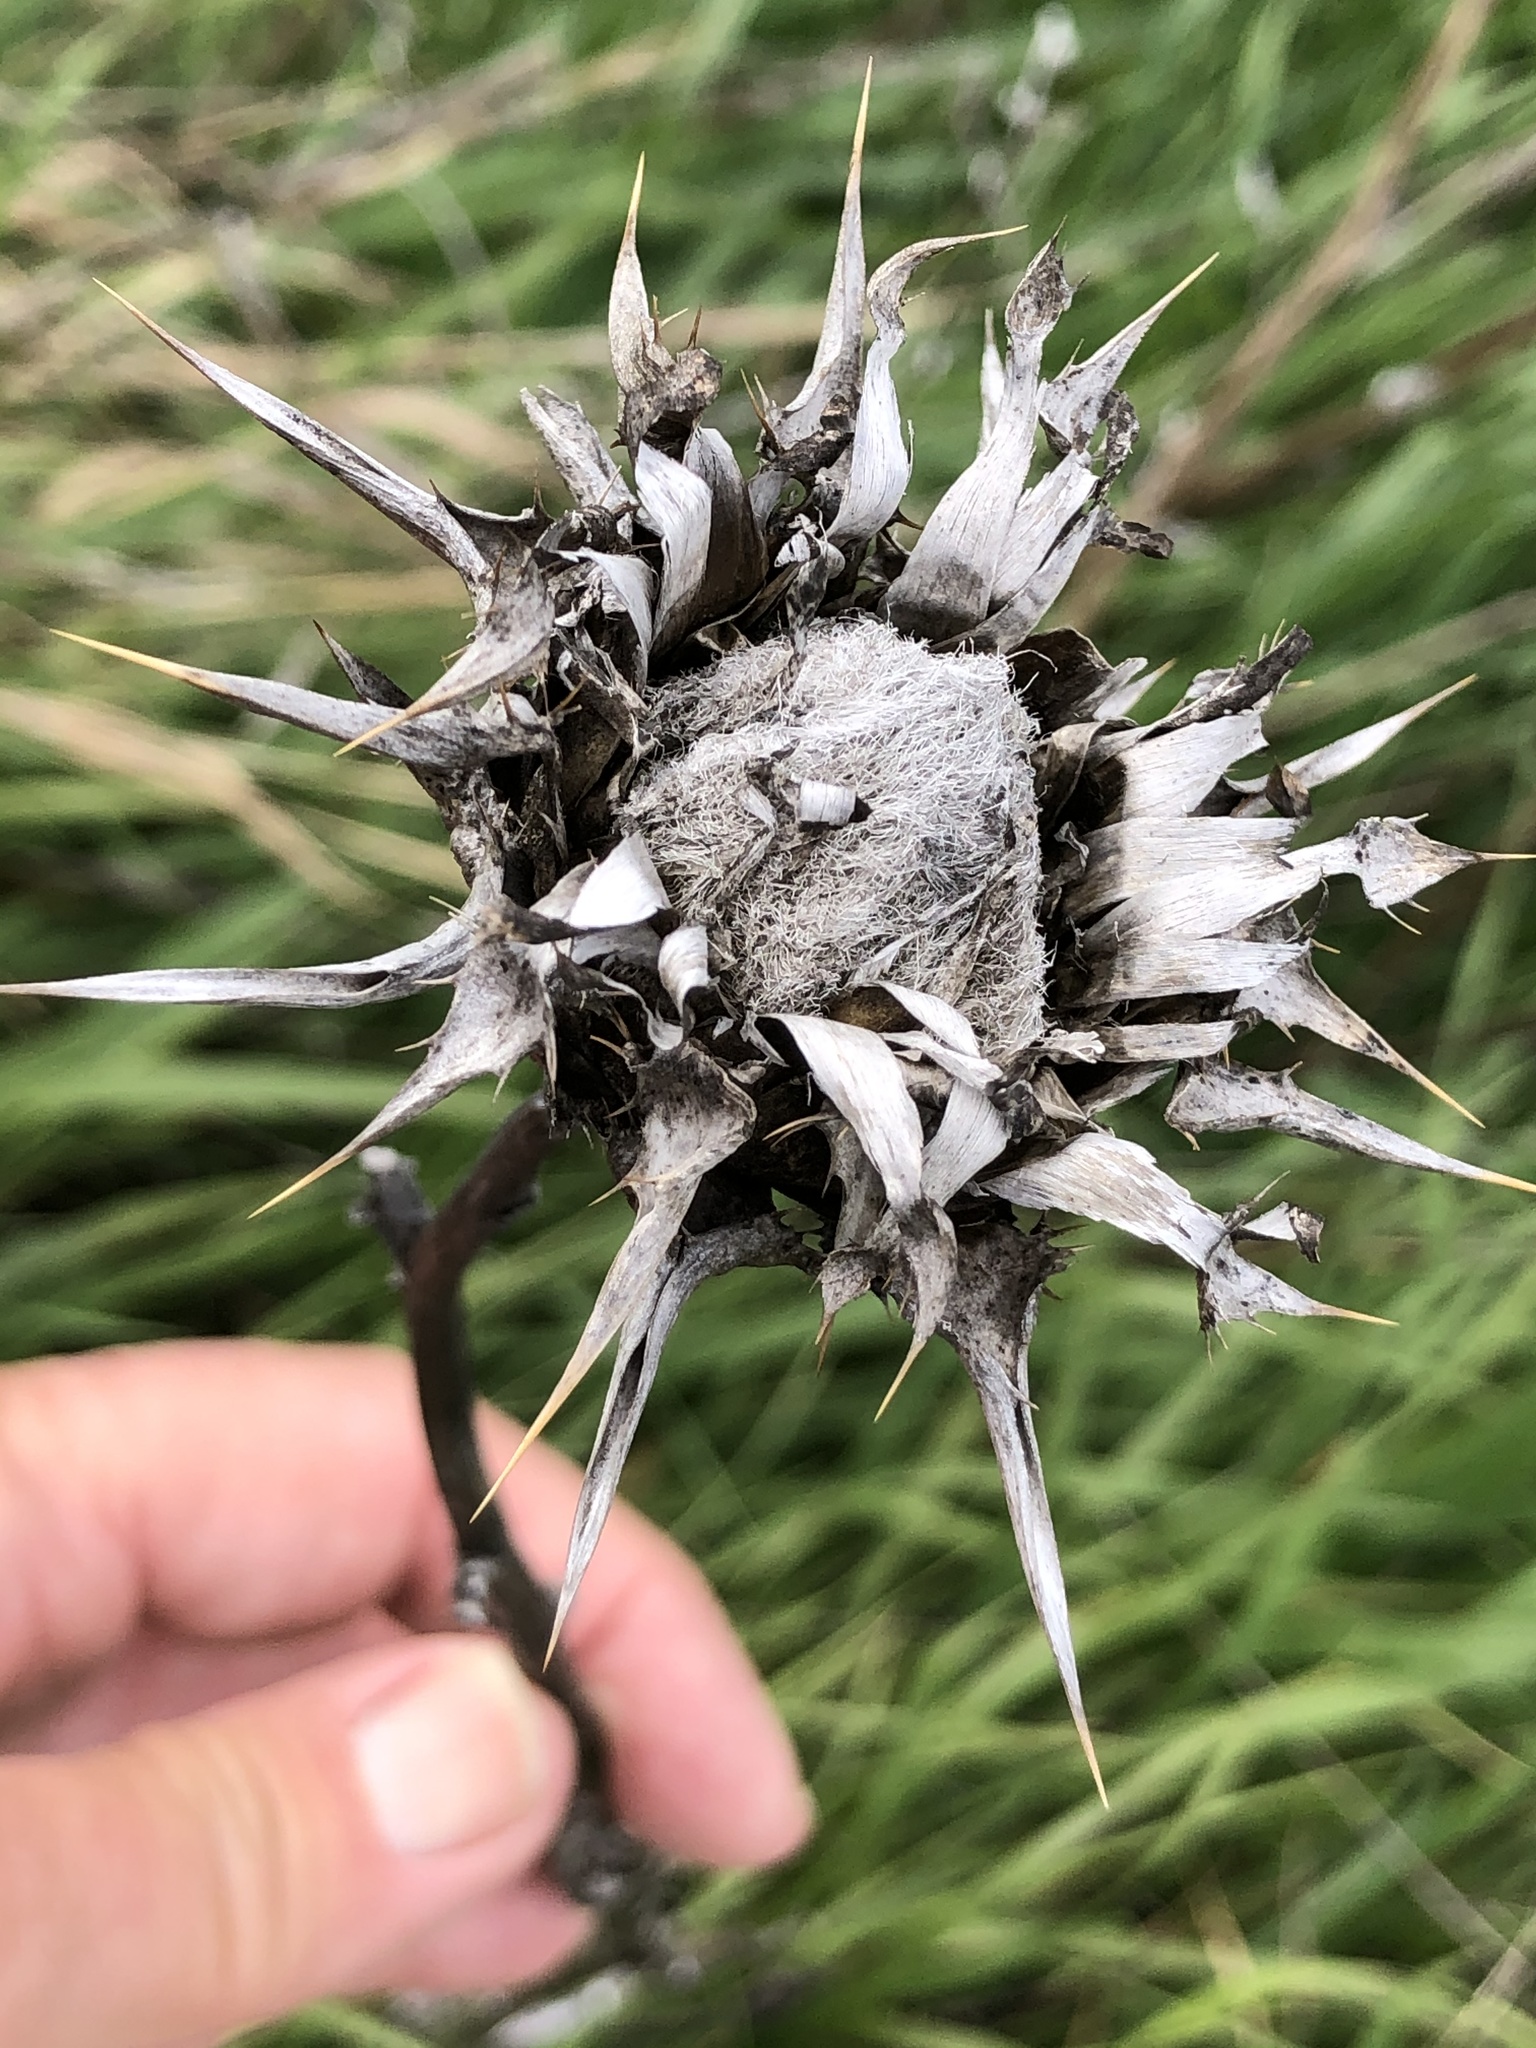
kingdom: Plantae
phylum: Tracheophyta
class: Magnoliopsida
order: Asterales
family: Asteraceae
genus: Silybum
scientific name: Silybum marianum
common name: Milk thistle
